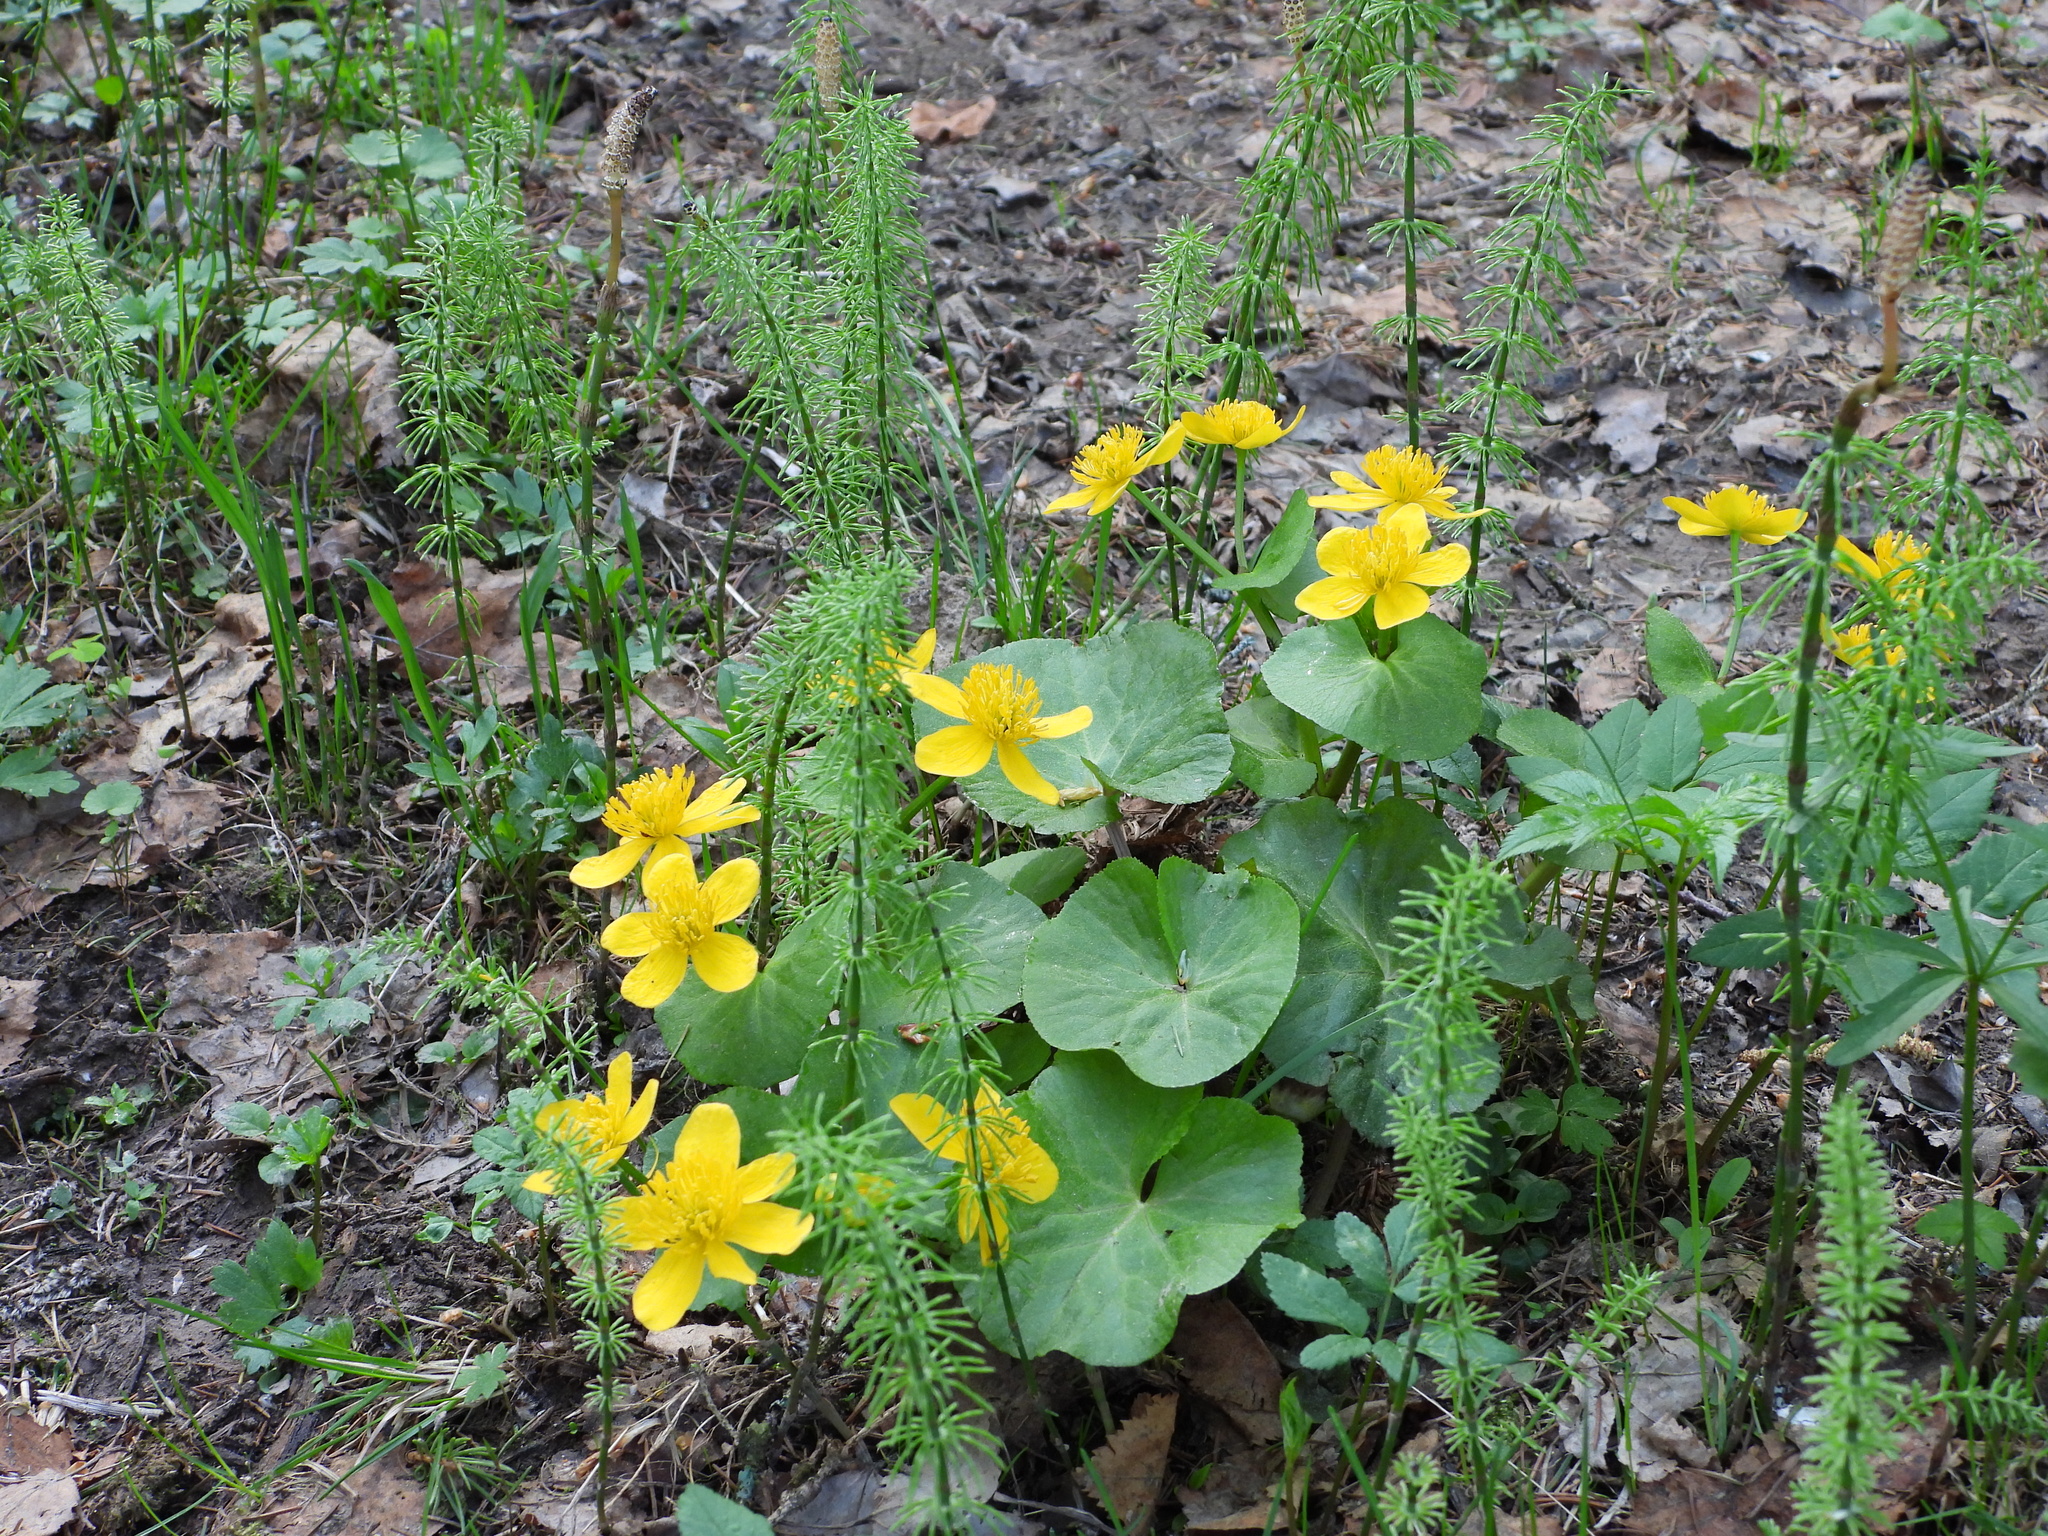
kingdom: Plantae
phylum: Tracheophyta
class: Magnoliopsida
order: Ranunculales
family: Ranunculaceae
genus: Caltha
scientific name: Caltha palustris
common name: Marsh marigold
